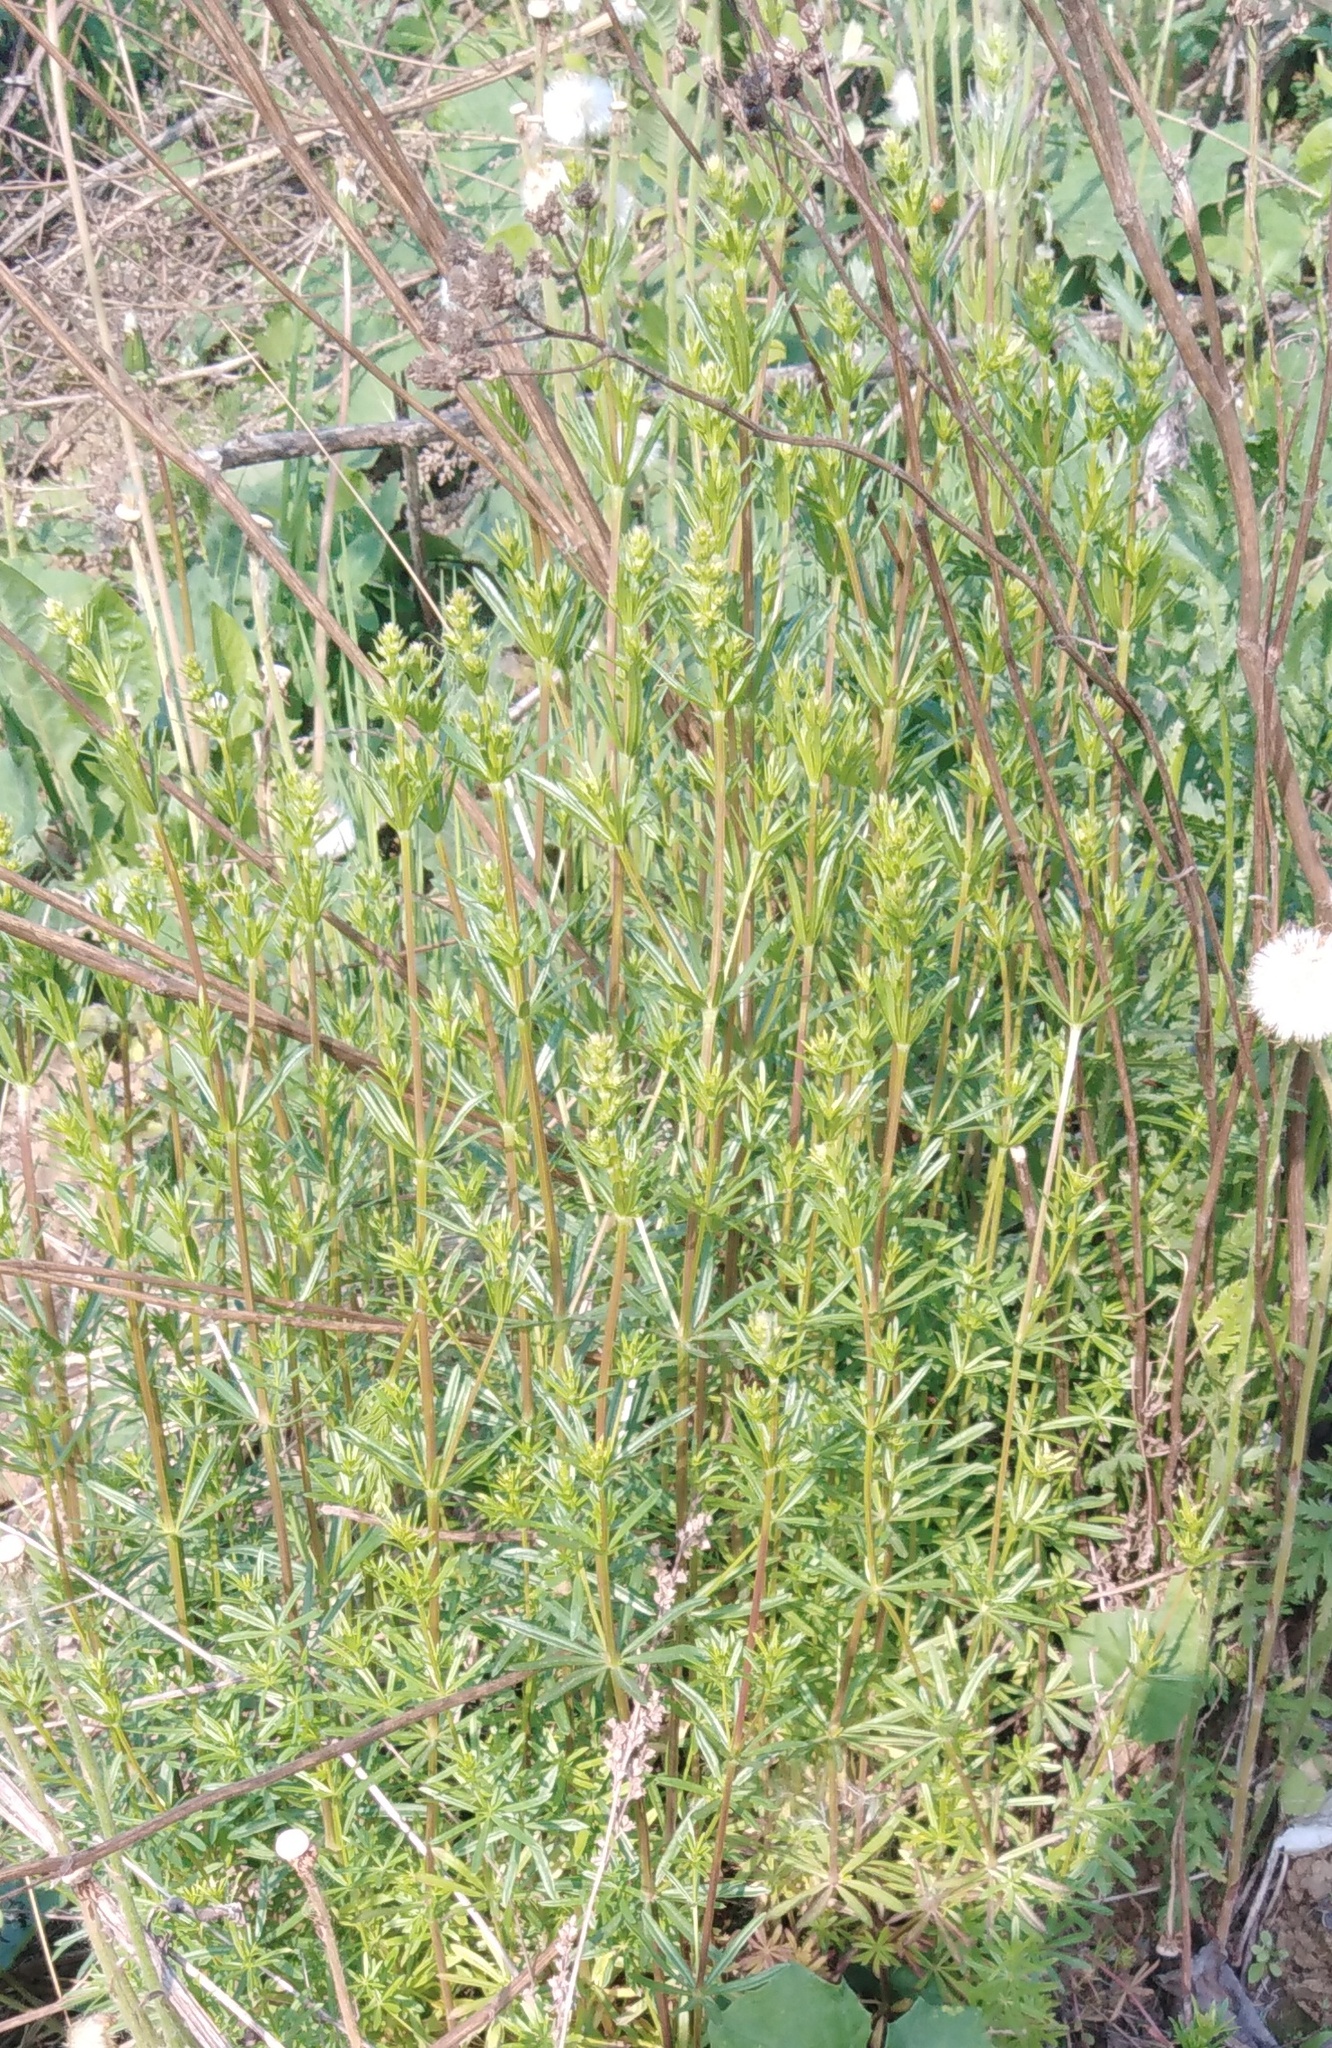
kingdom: Plantae
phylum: Tracheophyta
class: Magnoliopsida
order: Gentianales
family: Rubiaceae
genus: Galium
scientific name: Galium verum
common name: Lady's bedstraw
